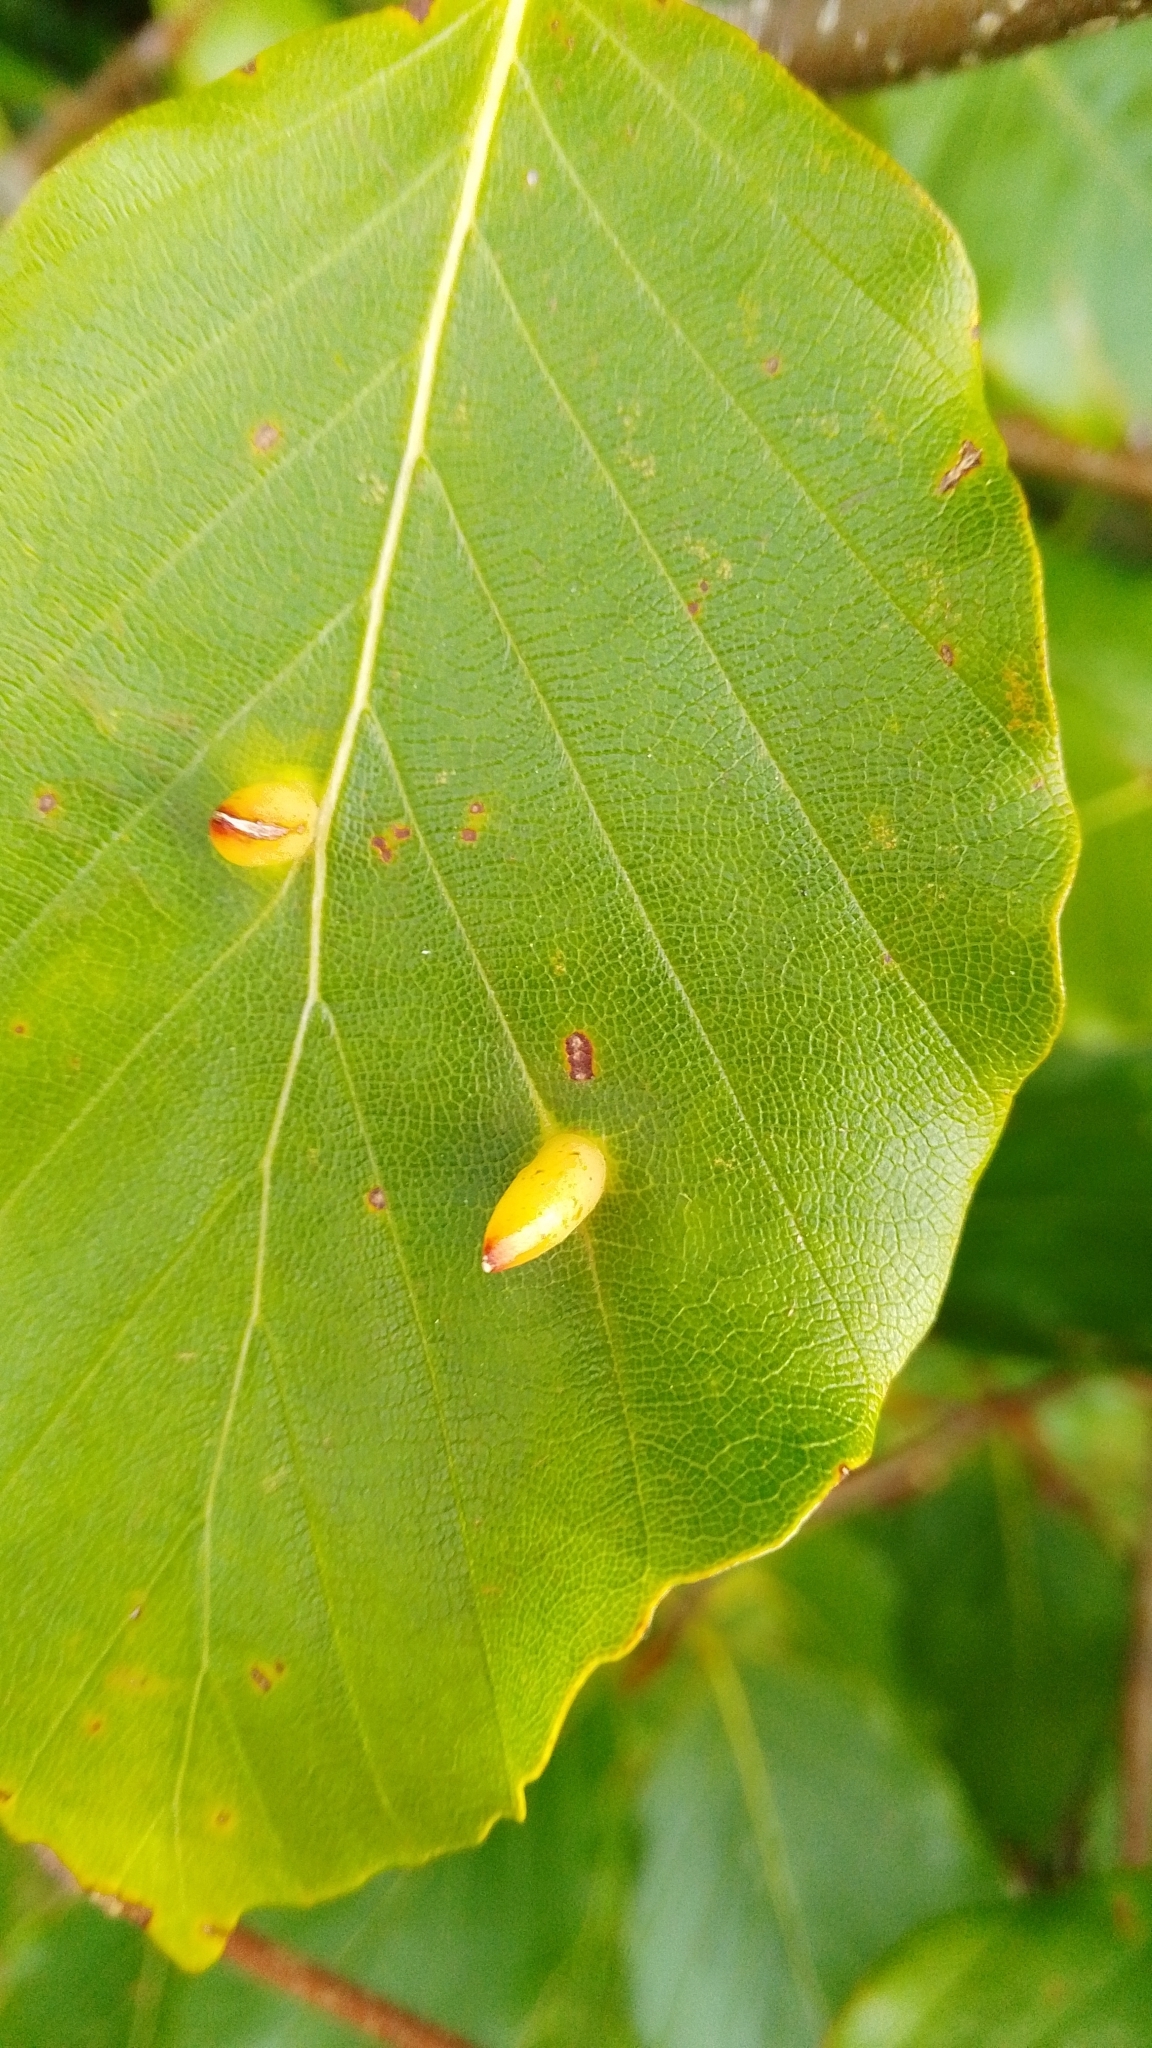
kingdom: Animalia
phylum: Arthropoda
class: Insecta
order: Diptera
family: Cecidomyiidae
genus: Hartigiola
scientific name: Hartigiola annulipes
